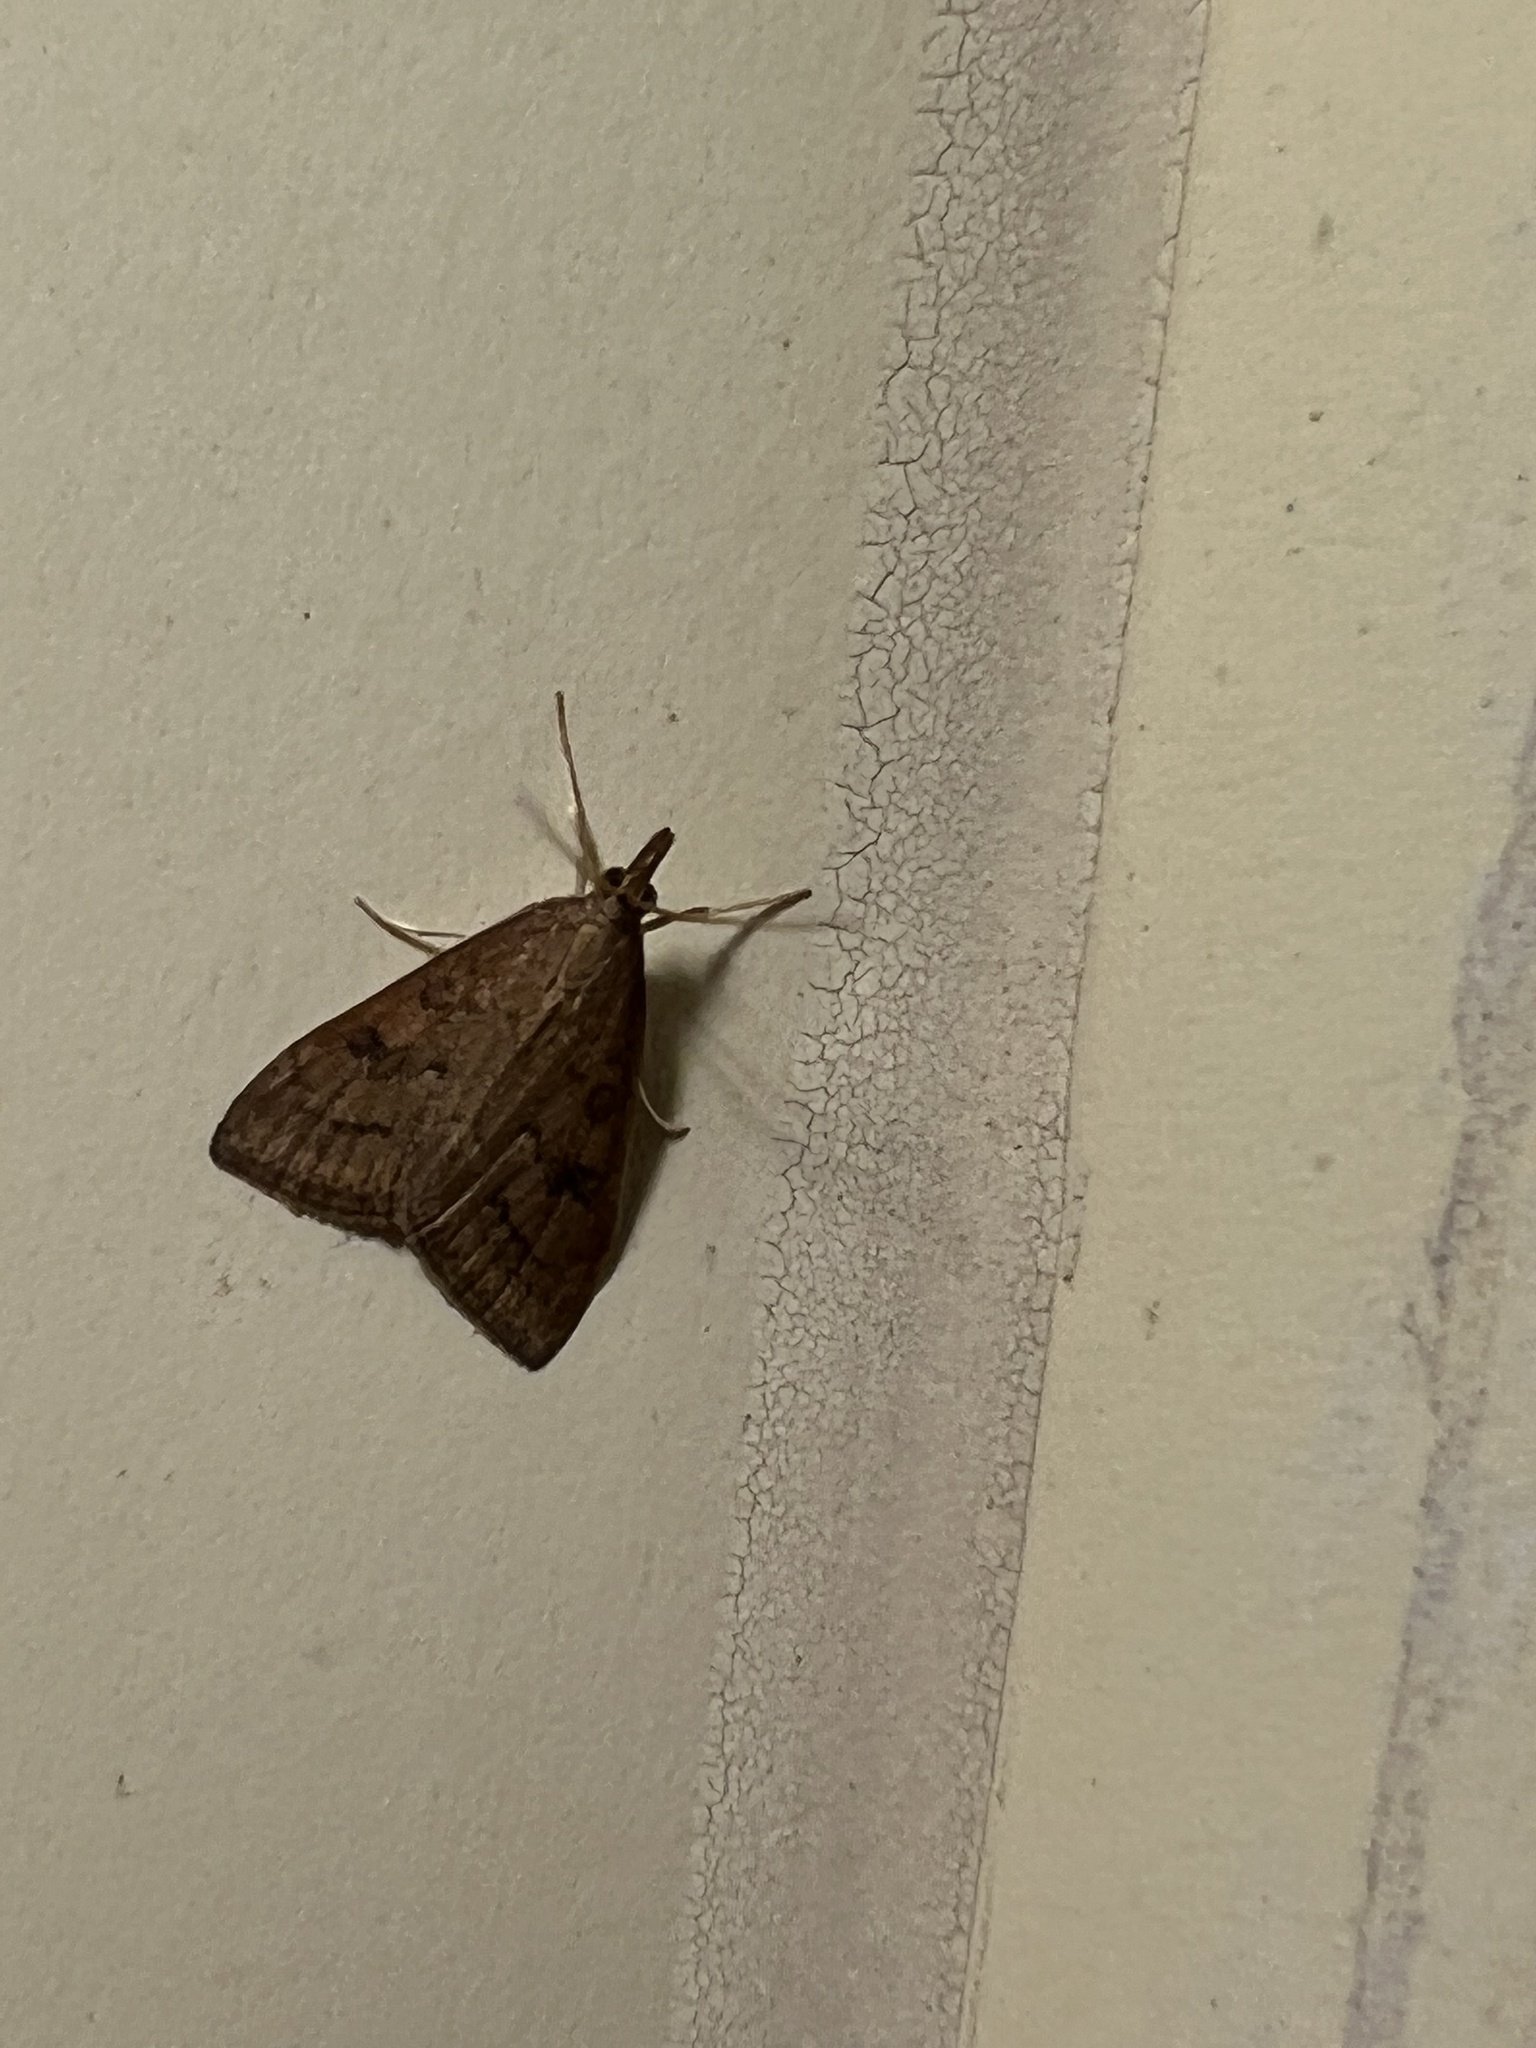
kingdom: Animalia
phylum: Arthropoda
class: Insecta
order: Lepidoptera
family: Crambidae
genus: Udea
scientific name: Udea rubigalis
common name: Celery leaftier moth
